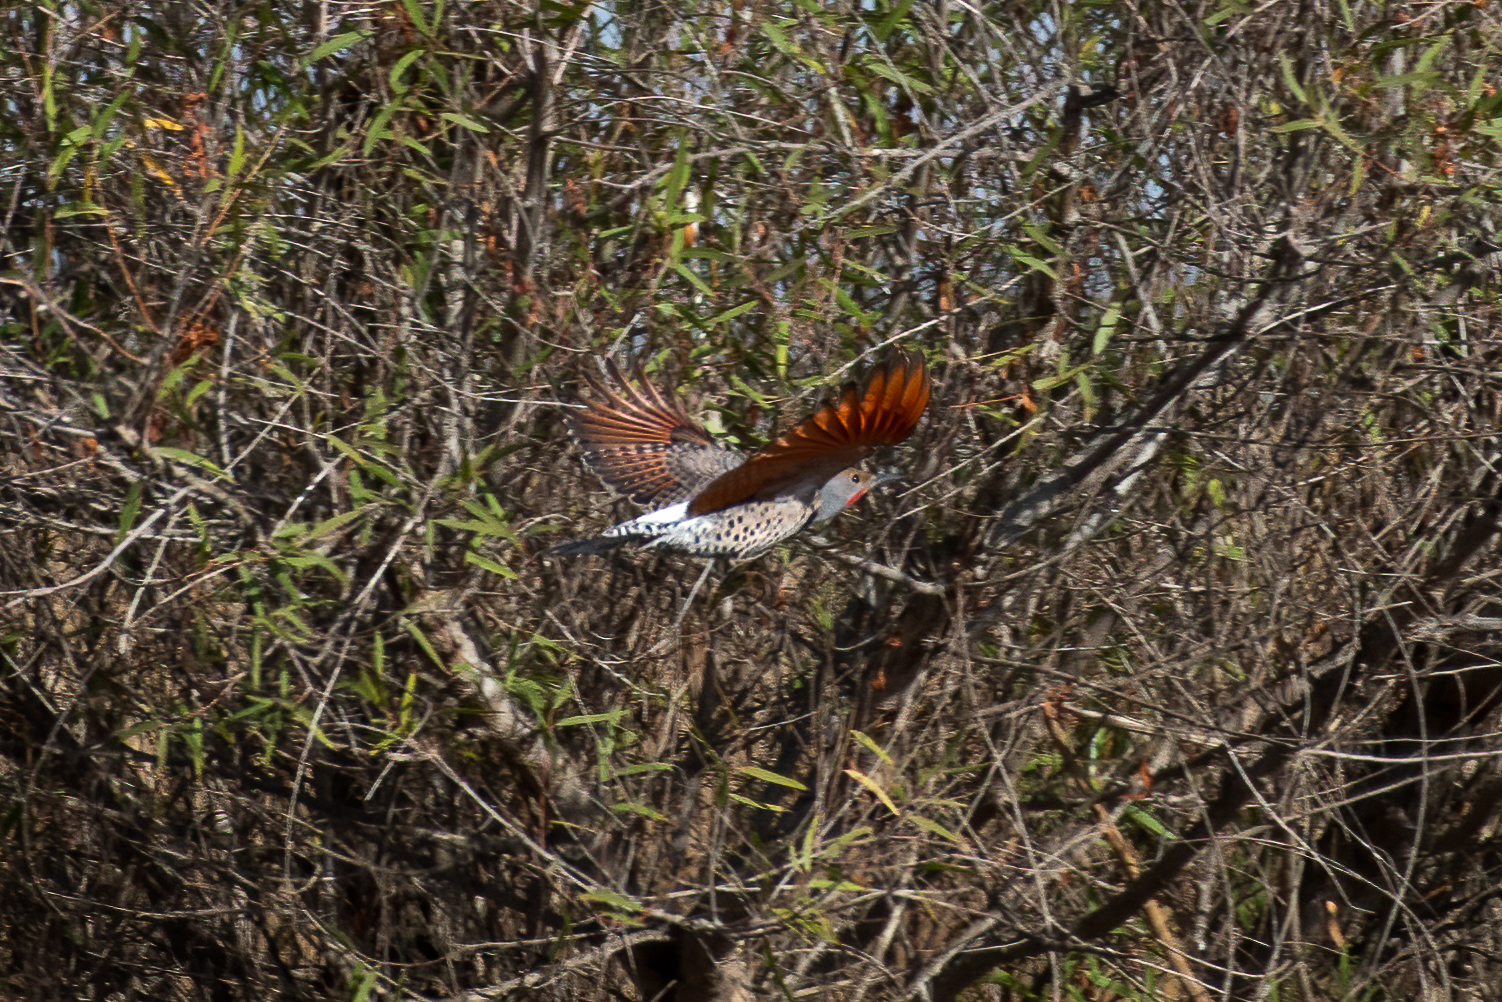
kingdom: Animalia
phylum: Chordata
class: Aves
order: Piciformes
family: Picidae
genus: Colaptes
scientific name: Colaptes auratus
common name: Northern flicker
